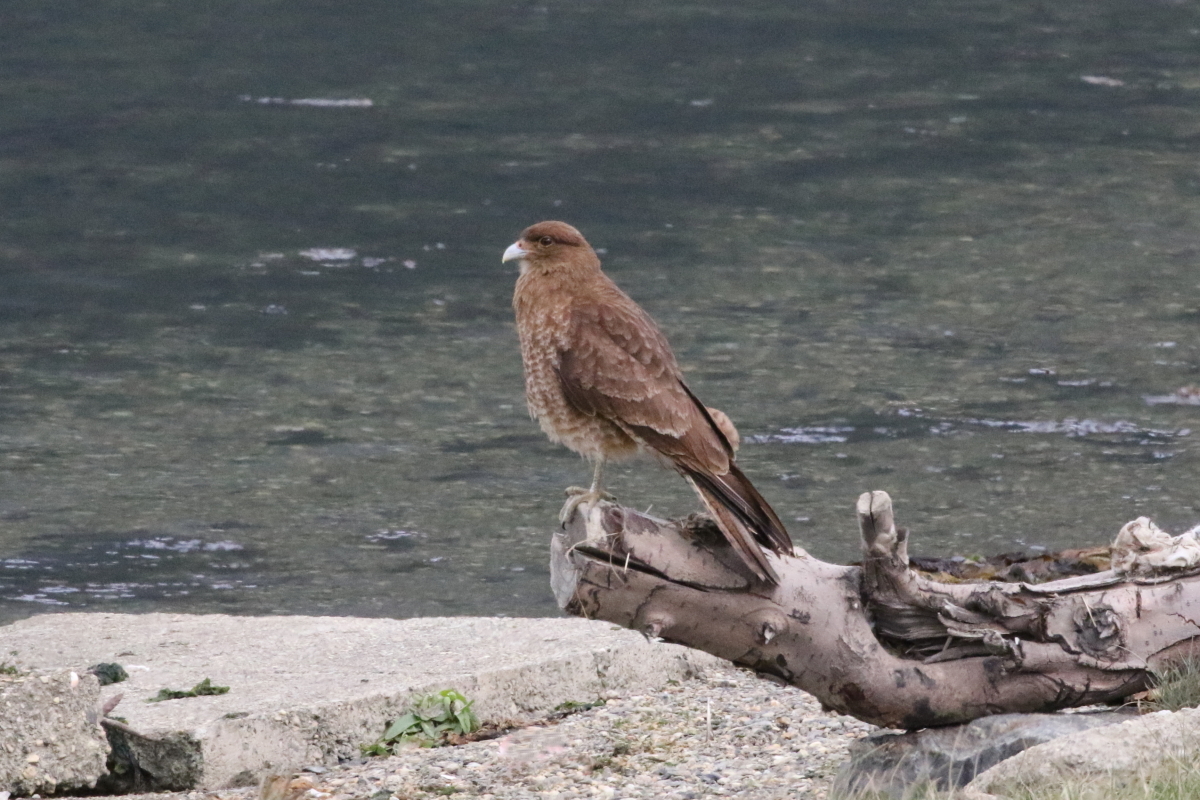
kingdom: Animalia
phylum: Chordata
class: Aves
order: Falconiformes
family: Falconidae
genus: Daptrius
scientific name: Daptrius
